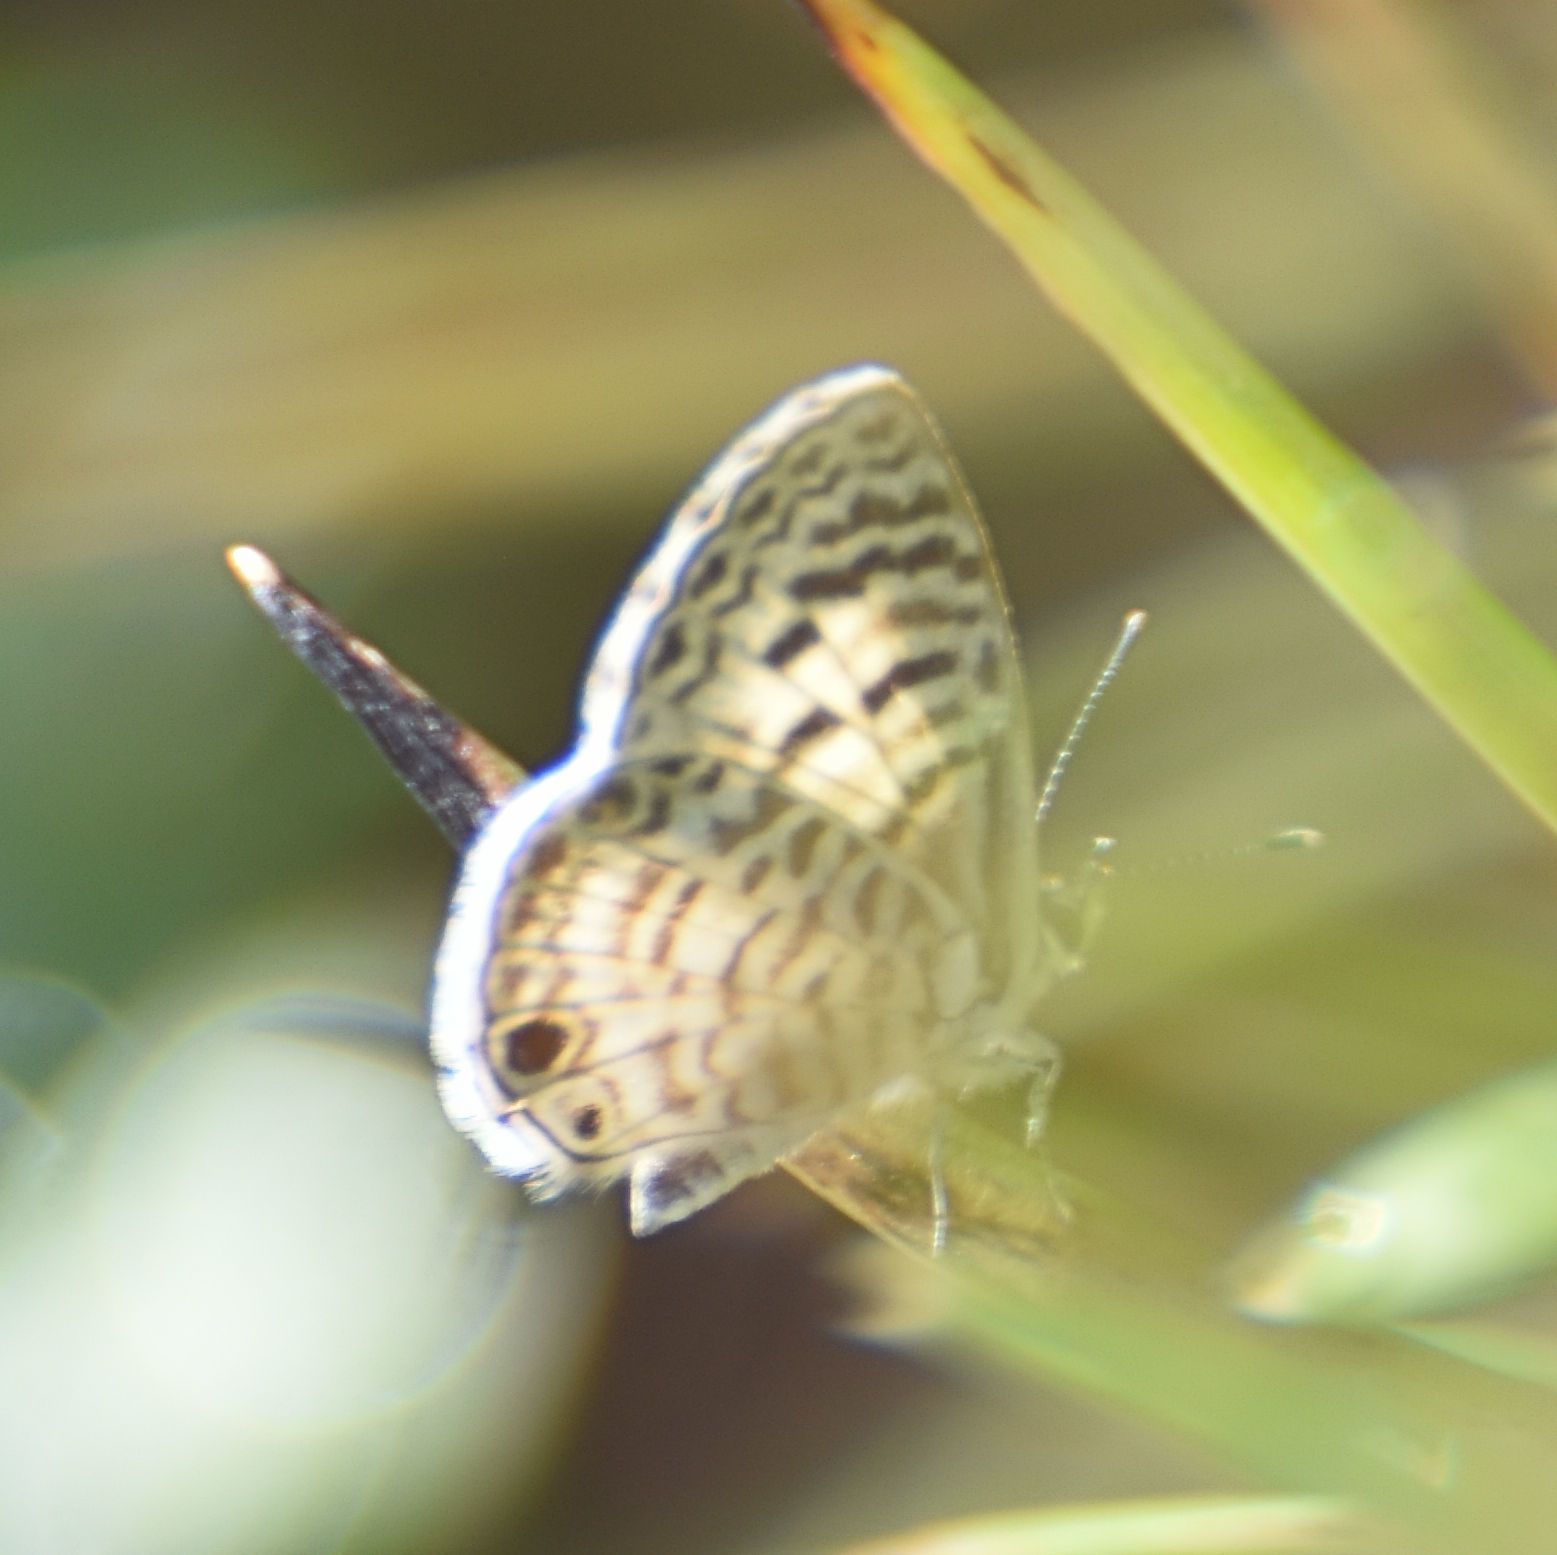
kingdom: Animalia
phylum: Arthropoda
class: Insecta
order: Lepidoptera
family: Lycaenidae
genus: Leptotes
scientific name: Leptotes cassius
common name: Cassius blue
